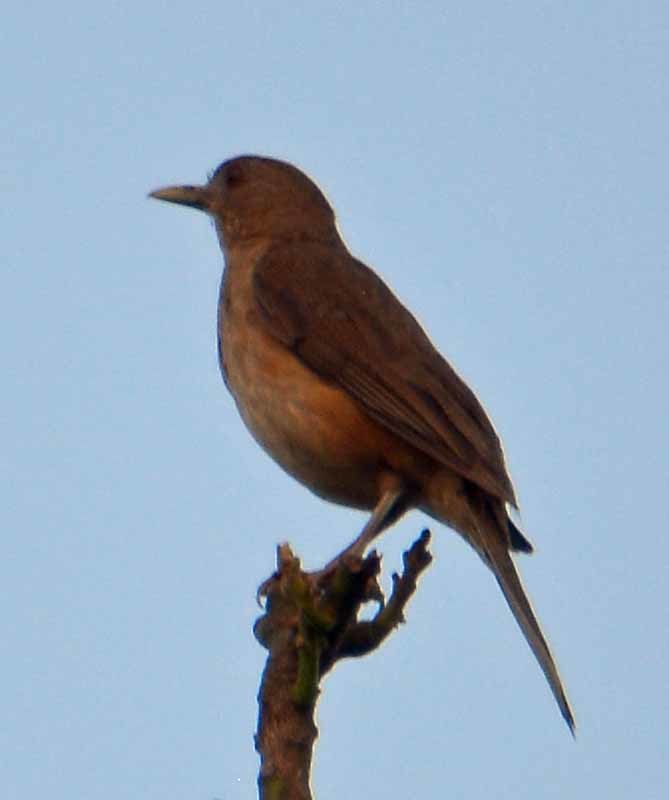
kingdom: Animalia
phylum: Chordata
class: Aves
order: Passeriformes
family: Turdidae
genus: Turdus
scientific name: Turdus grayi
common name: Clay-colored thrush
